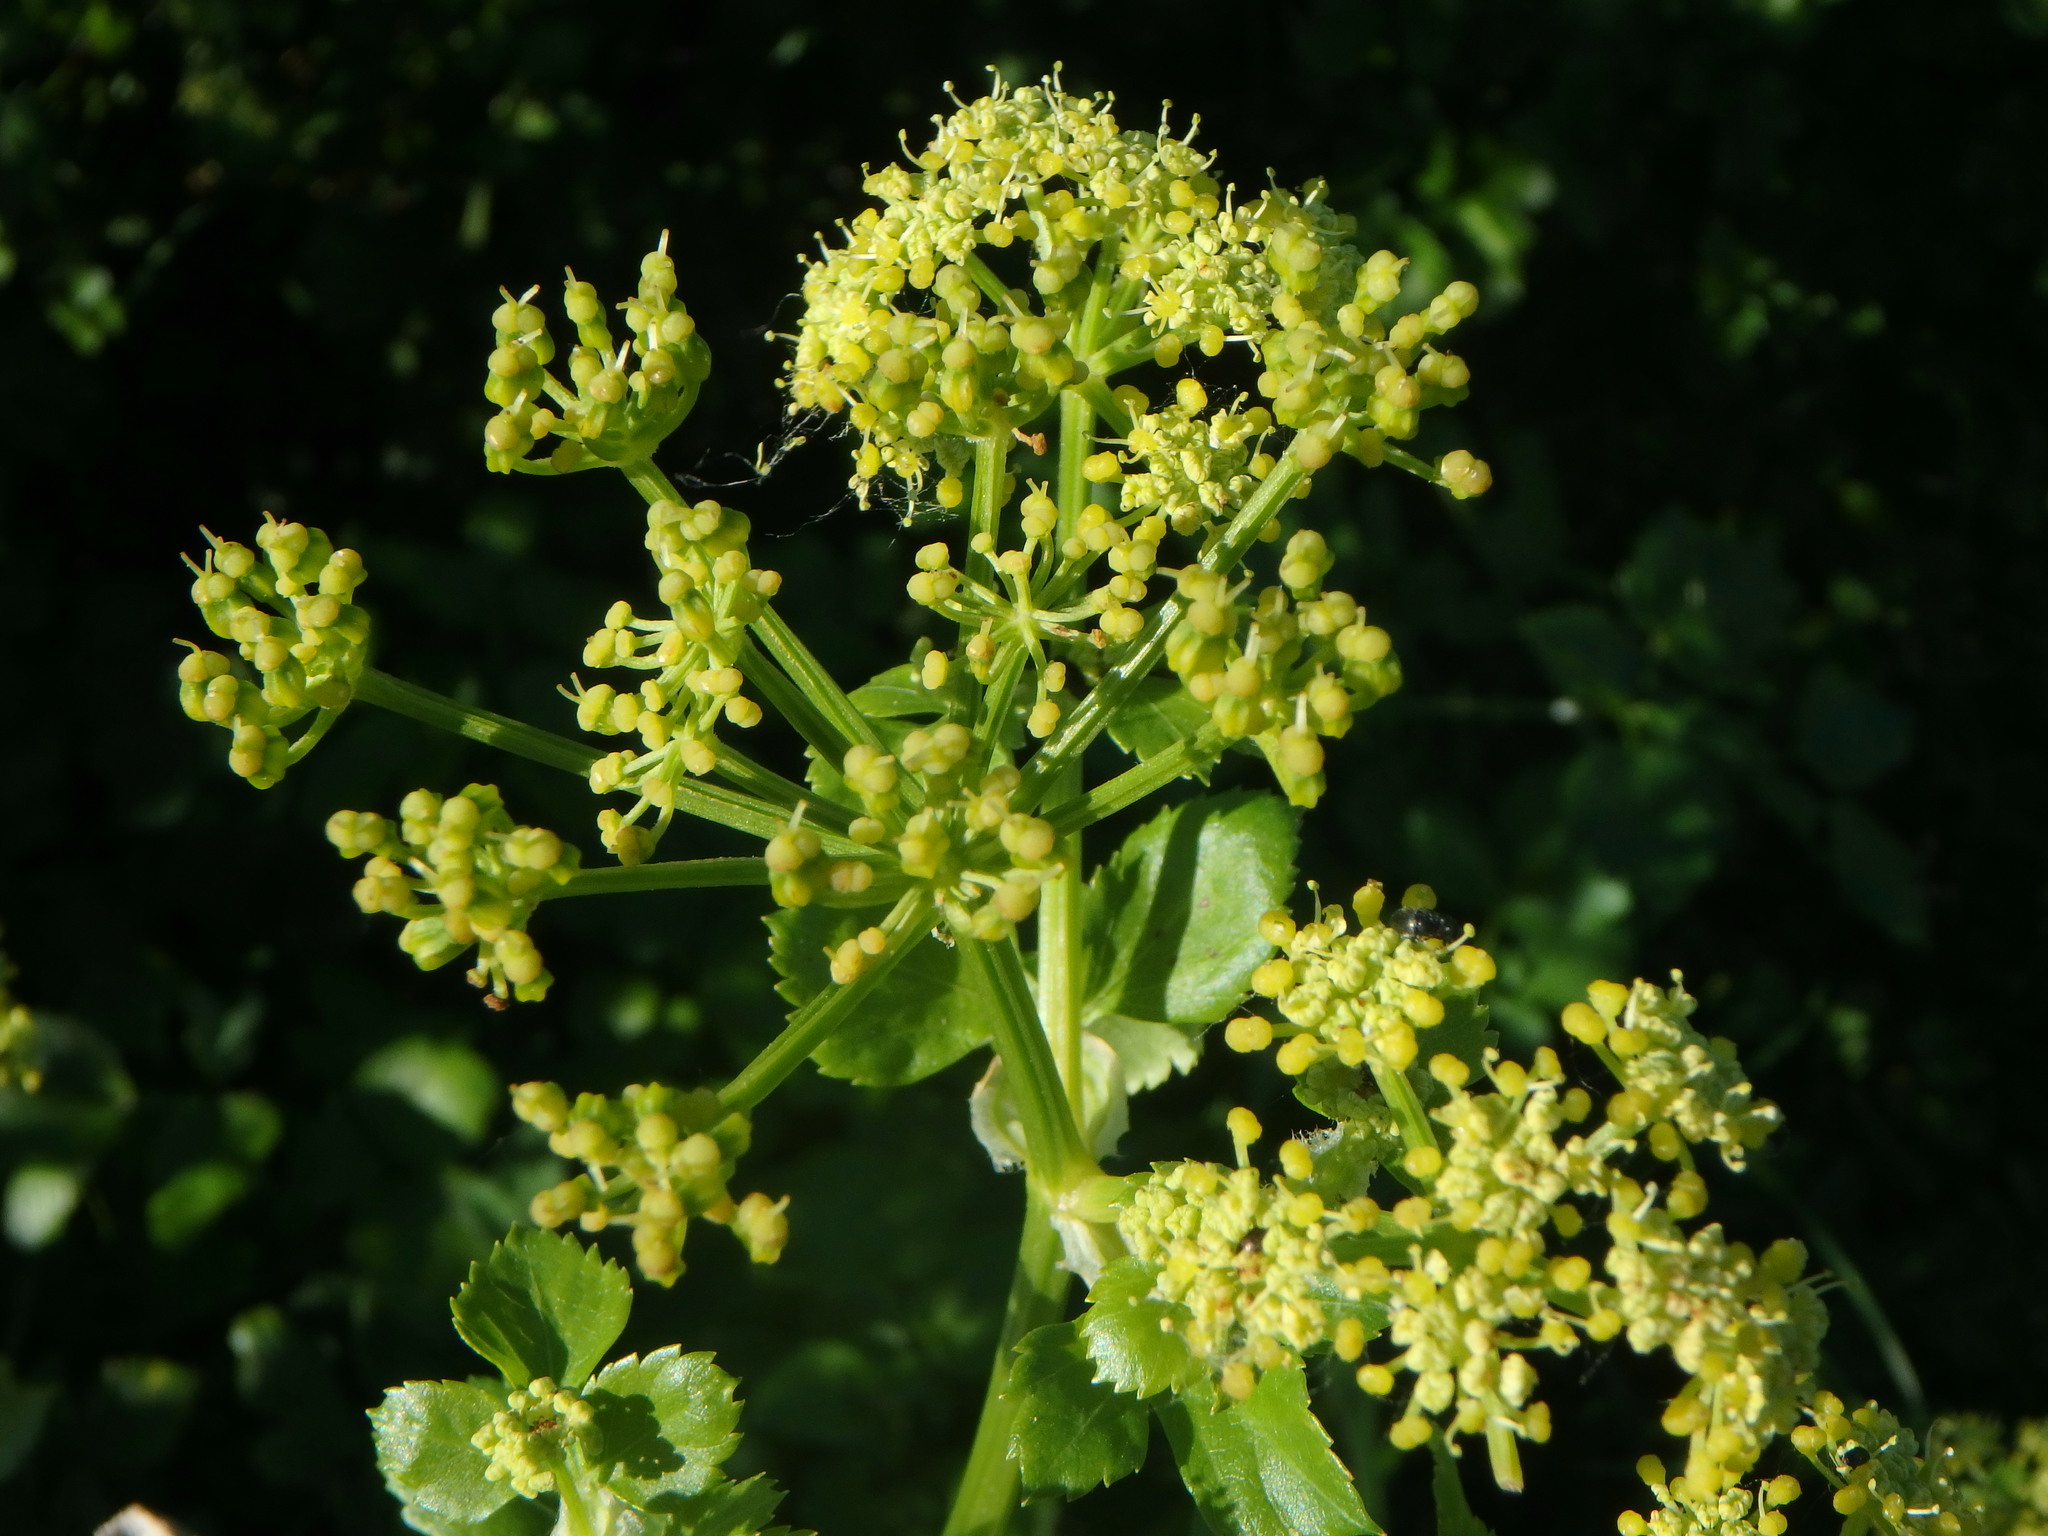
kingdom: Plantae
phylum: Tracheophyta
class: Magnoliopsida
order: Apiales
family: Apiaceae
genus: Smyrnium
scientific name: Smyrnium olusatrum
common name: Alexanders
